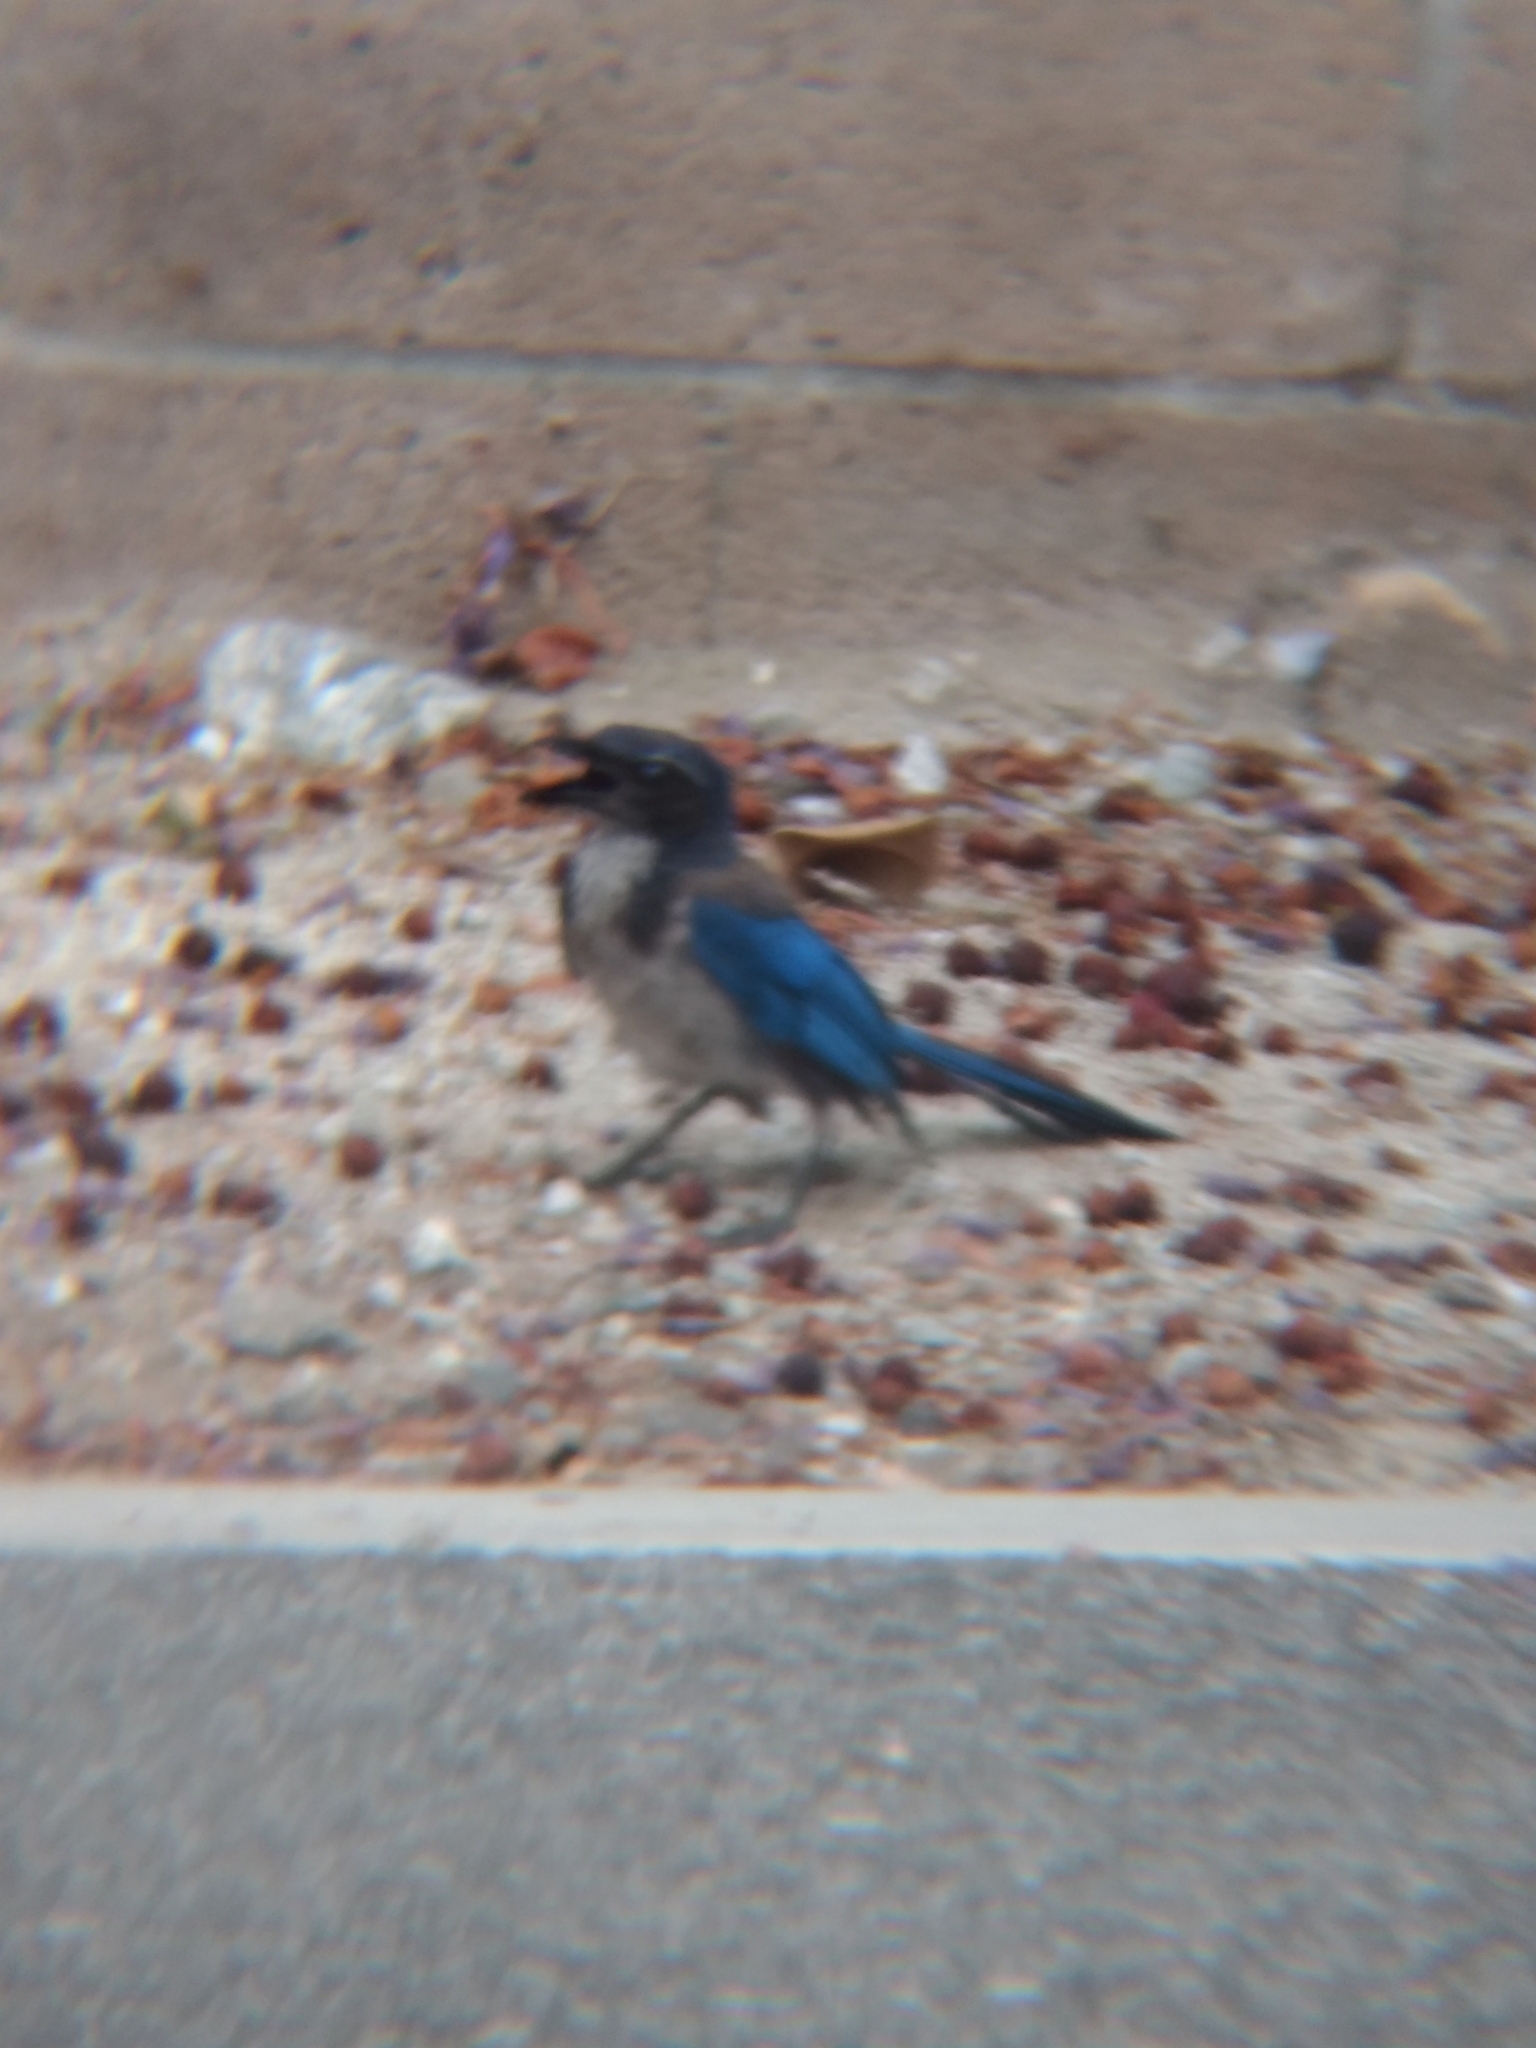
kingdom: Animalia
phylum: Chordata
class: Aves
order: Passeriformes
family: Corvidae
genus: Aphelocoma
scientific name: Aphelocoma californica
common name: California scrub-jay
